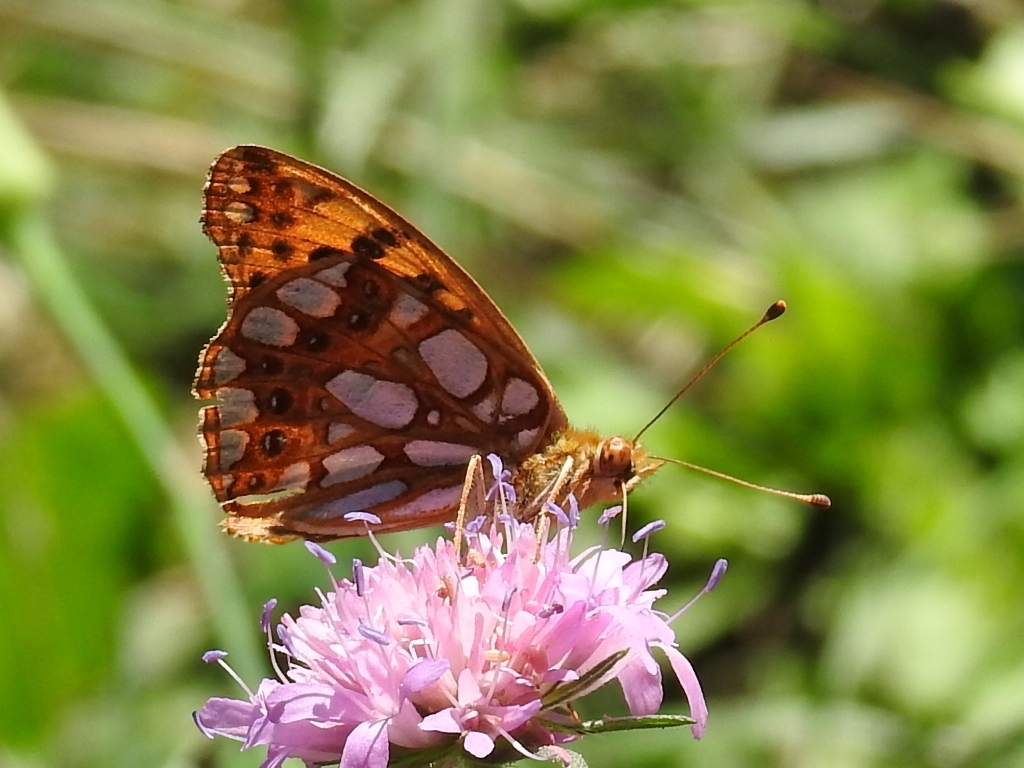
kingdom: Animalia
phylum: Arthropoda
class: Insecta
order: Lepidoptera
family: Nymphalidae
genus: Issoria
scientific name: Issoria lathonia
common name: Queen of spain fritillary
